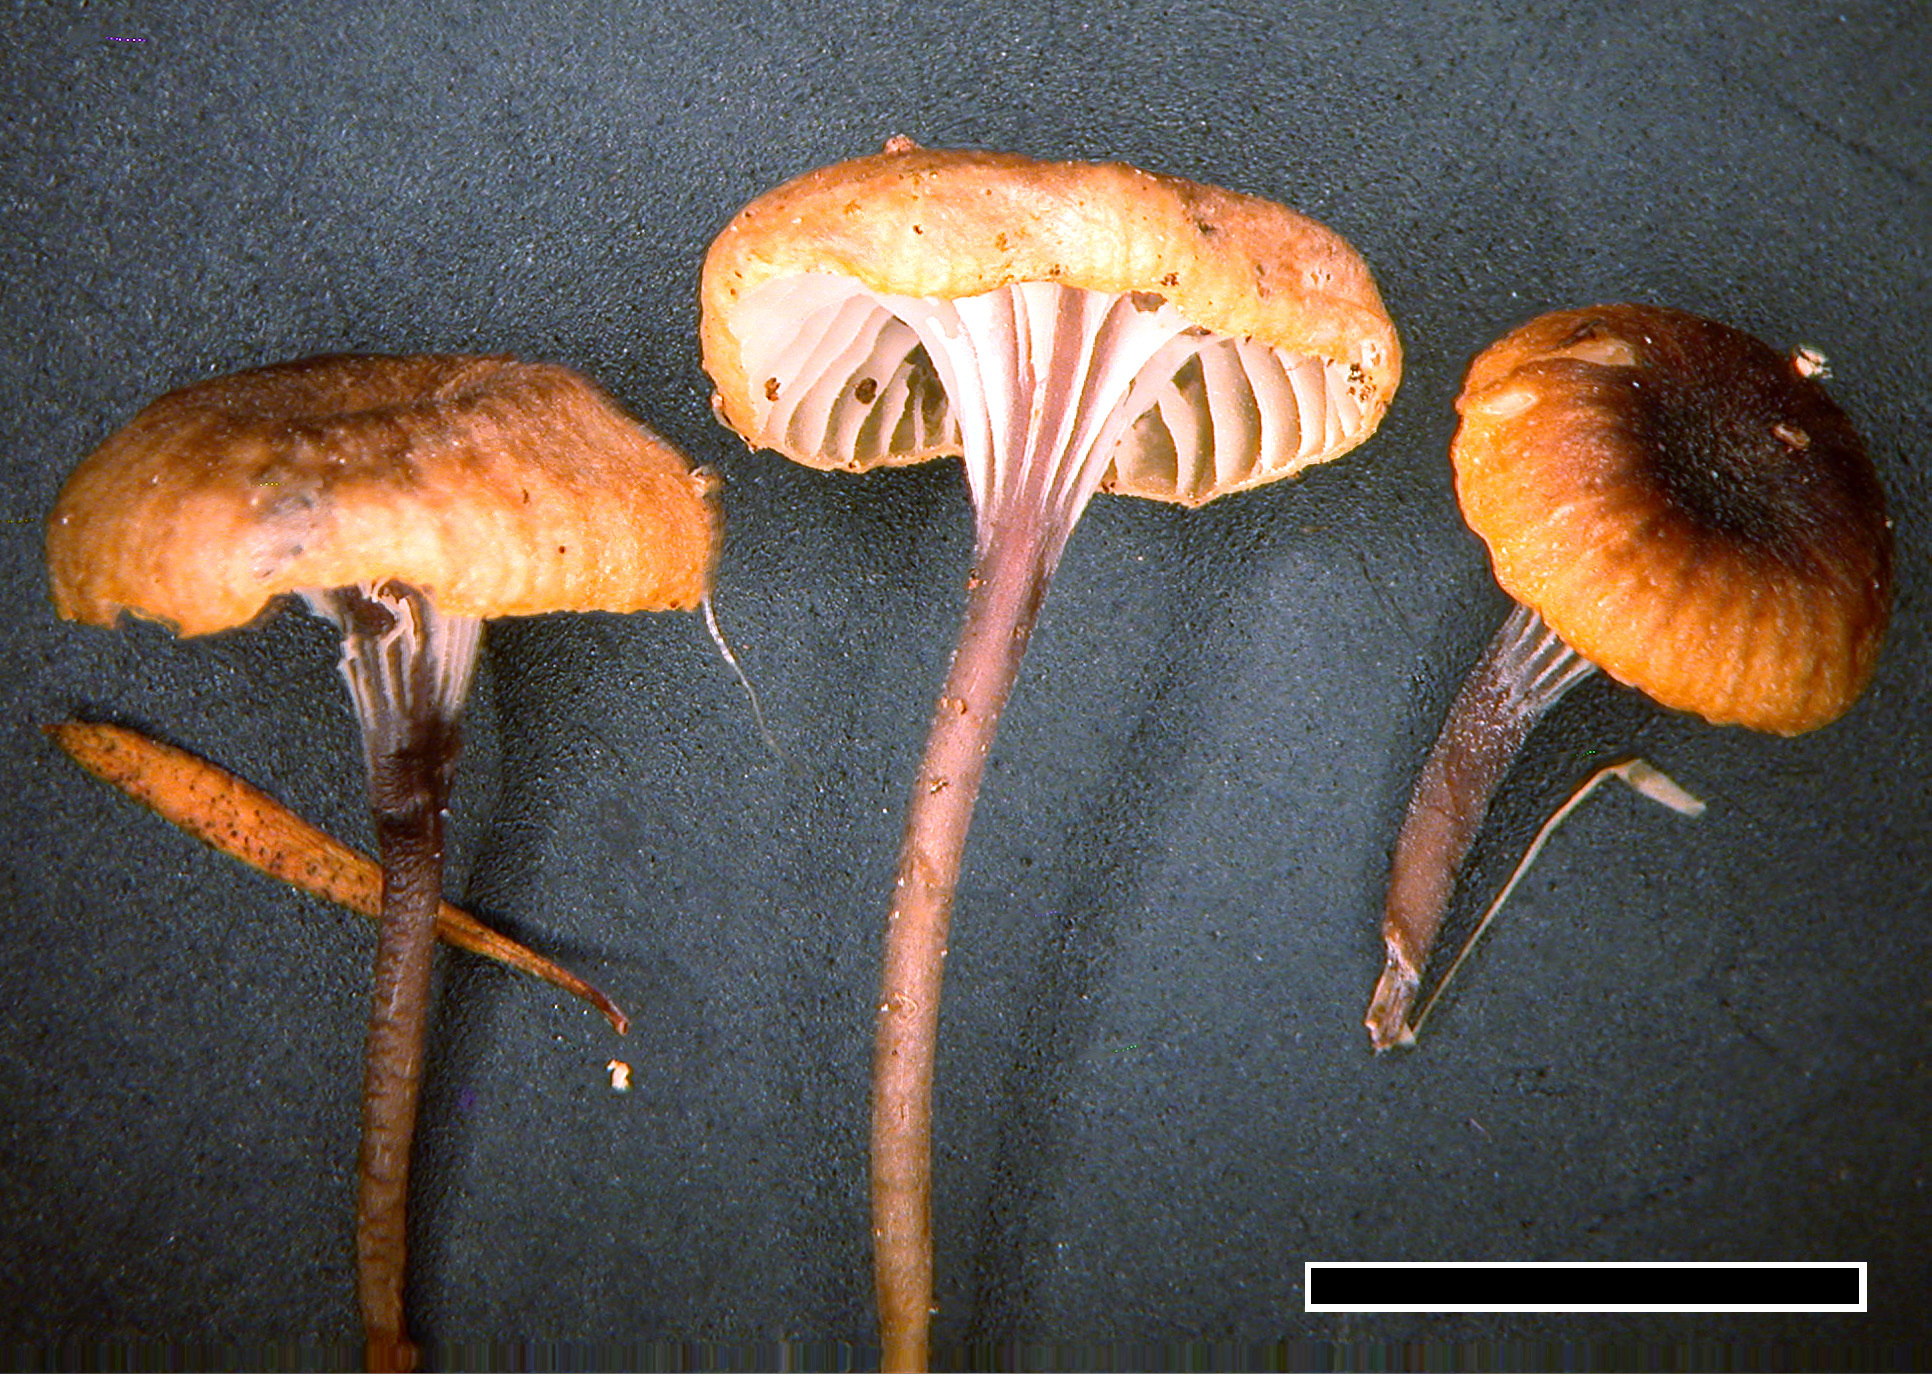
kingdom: Fungi
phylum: Basidiomycota
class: Agaricomycetes
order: Hymenochaetales
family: Rickenellaceae
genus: Rickenella
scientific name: Rickenella swartzii
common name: Collared mosscap
